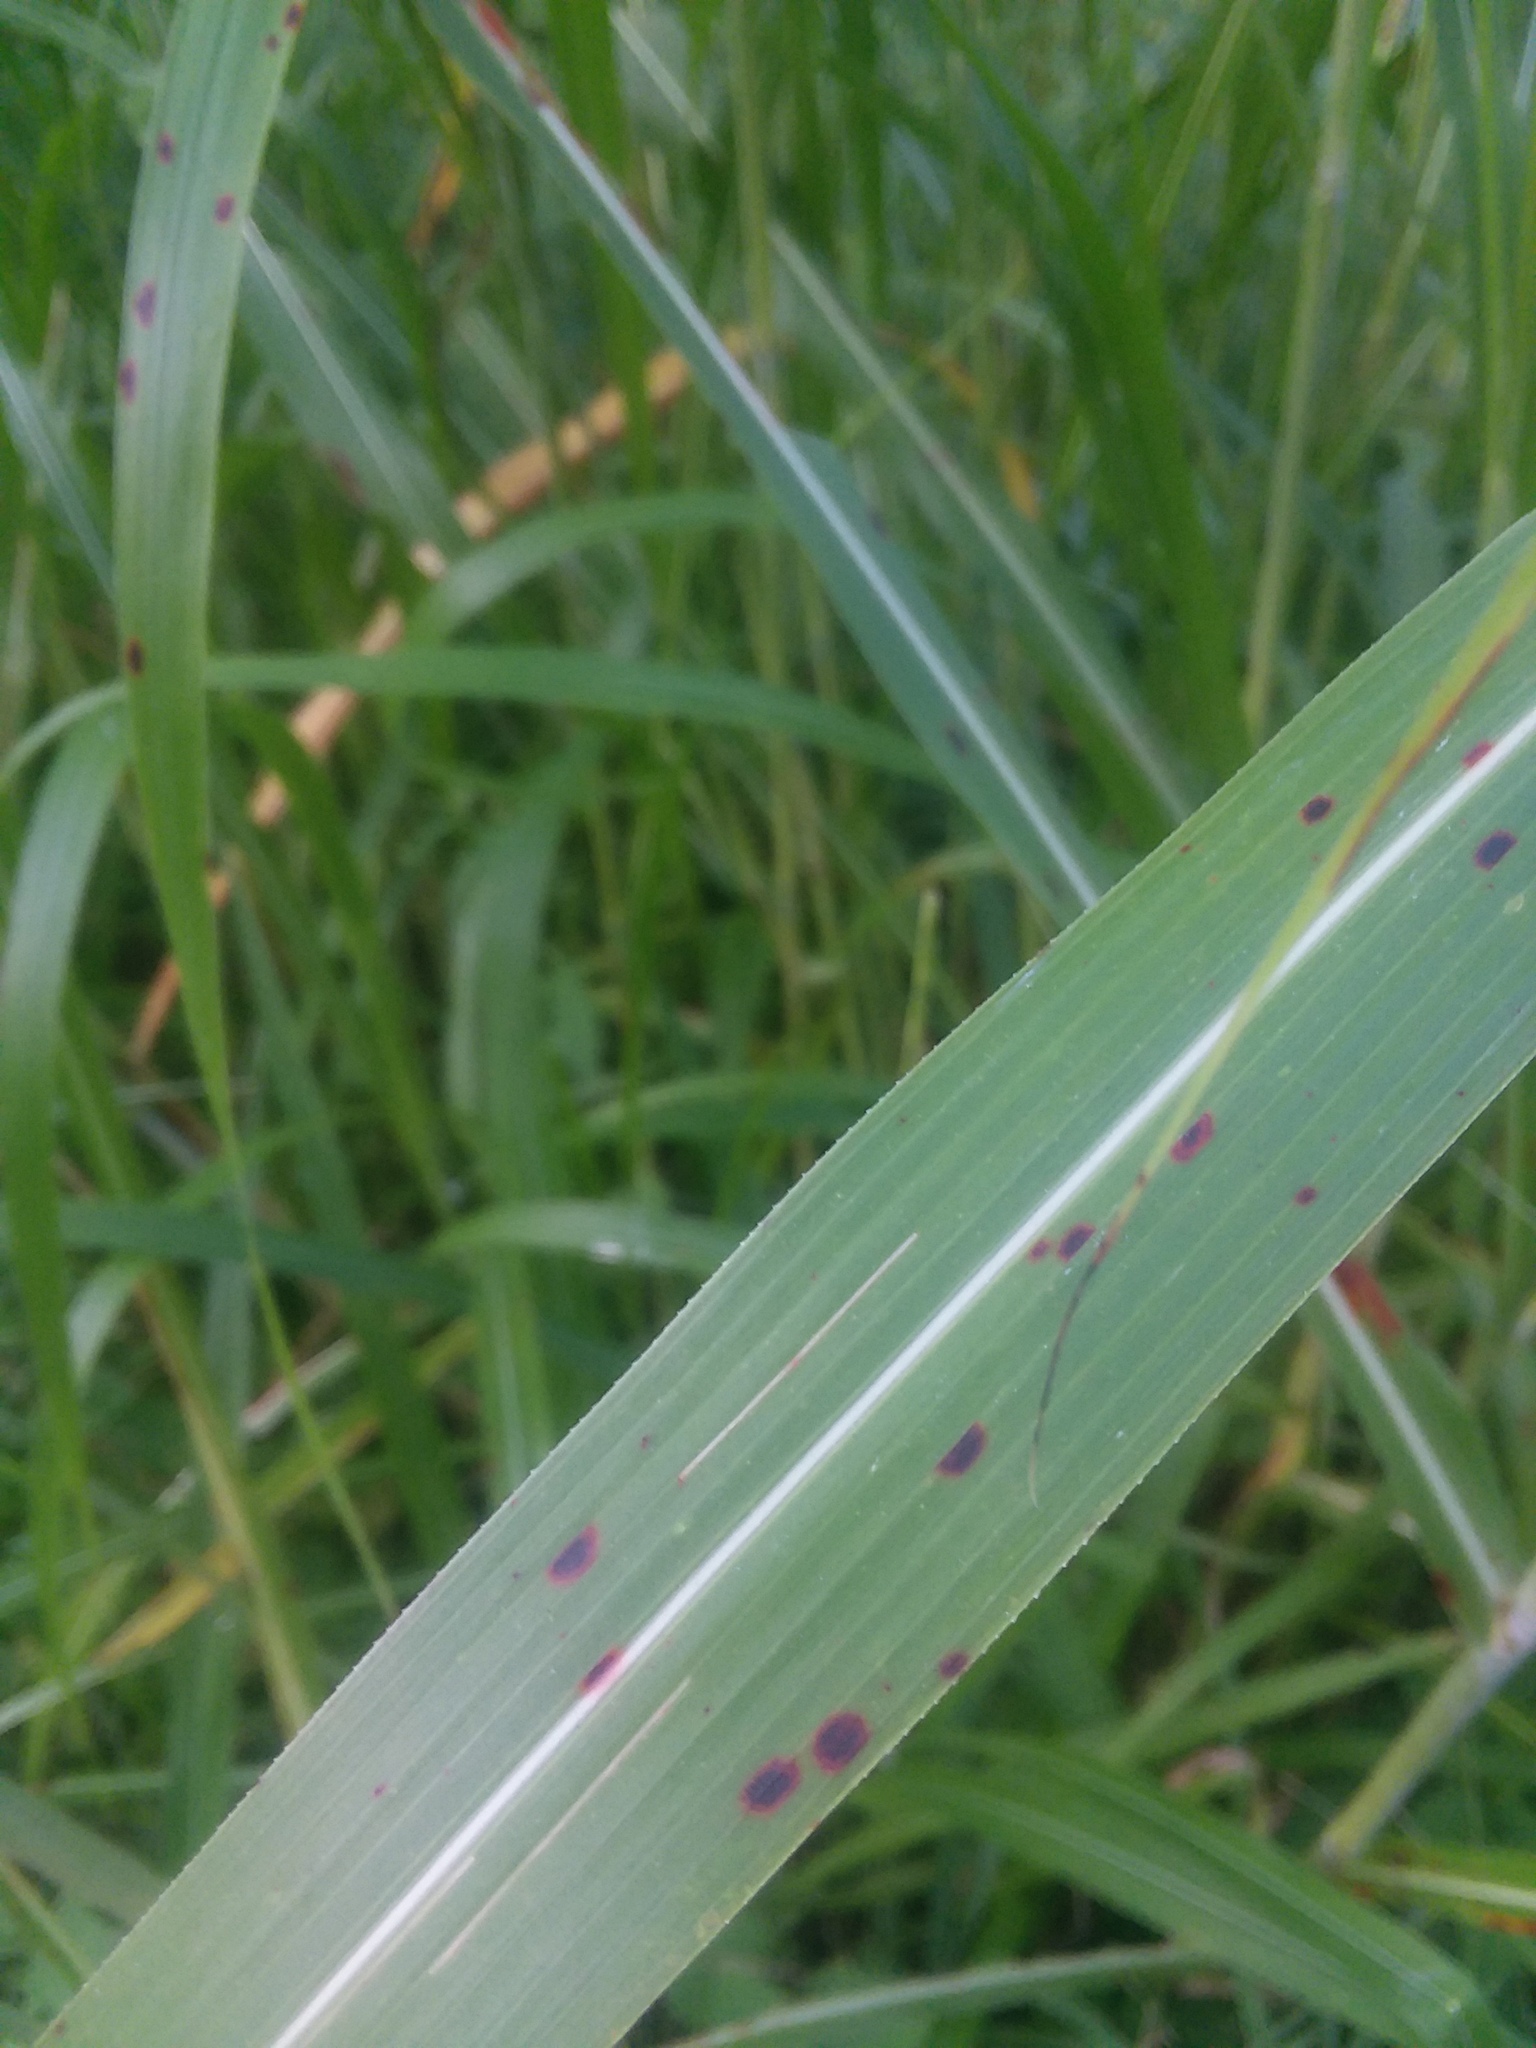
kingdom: Plantae
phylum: Tracheophyta
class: Liliopsida
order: Poales
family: Poaceae
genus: Sorghum
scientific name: Sorghum halepense
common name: Johnson-grass
